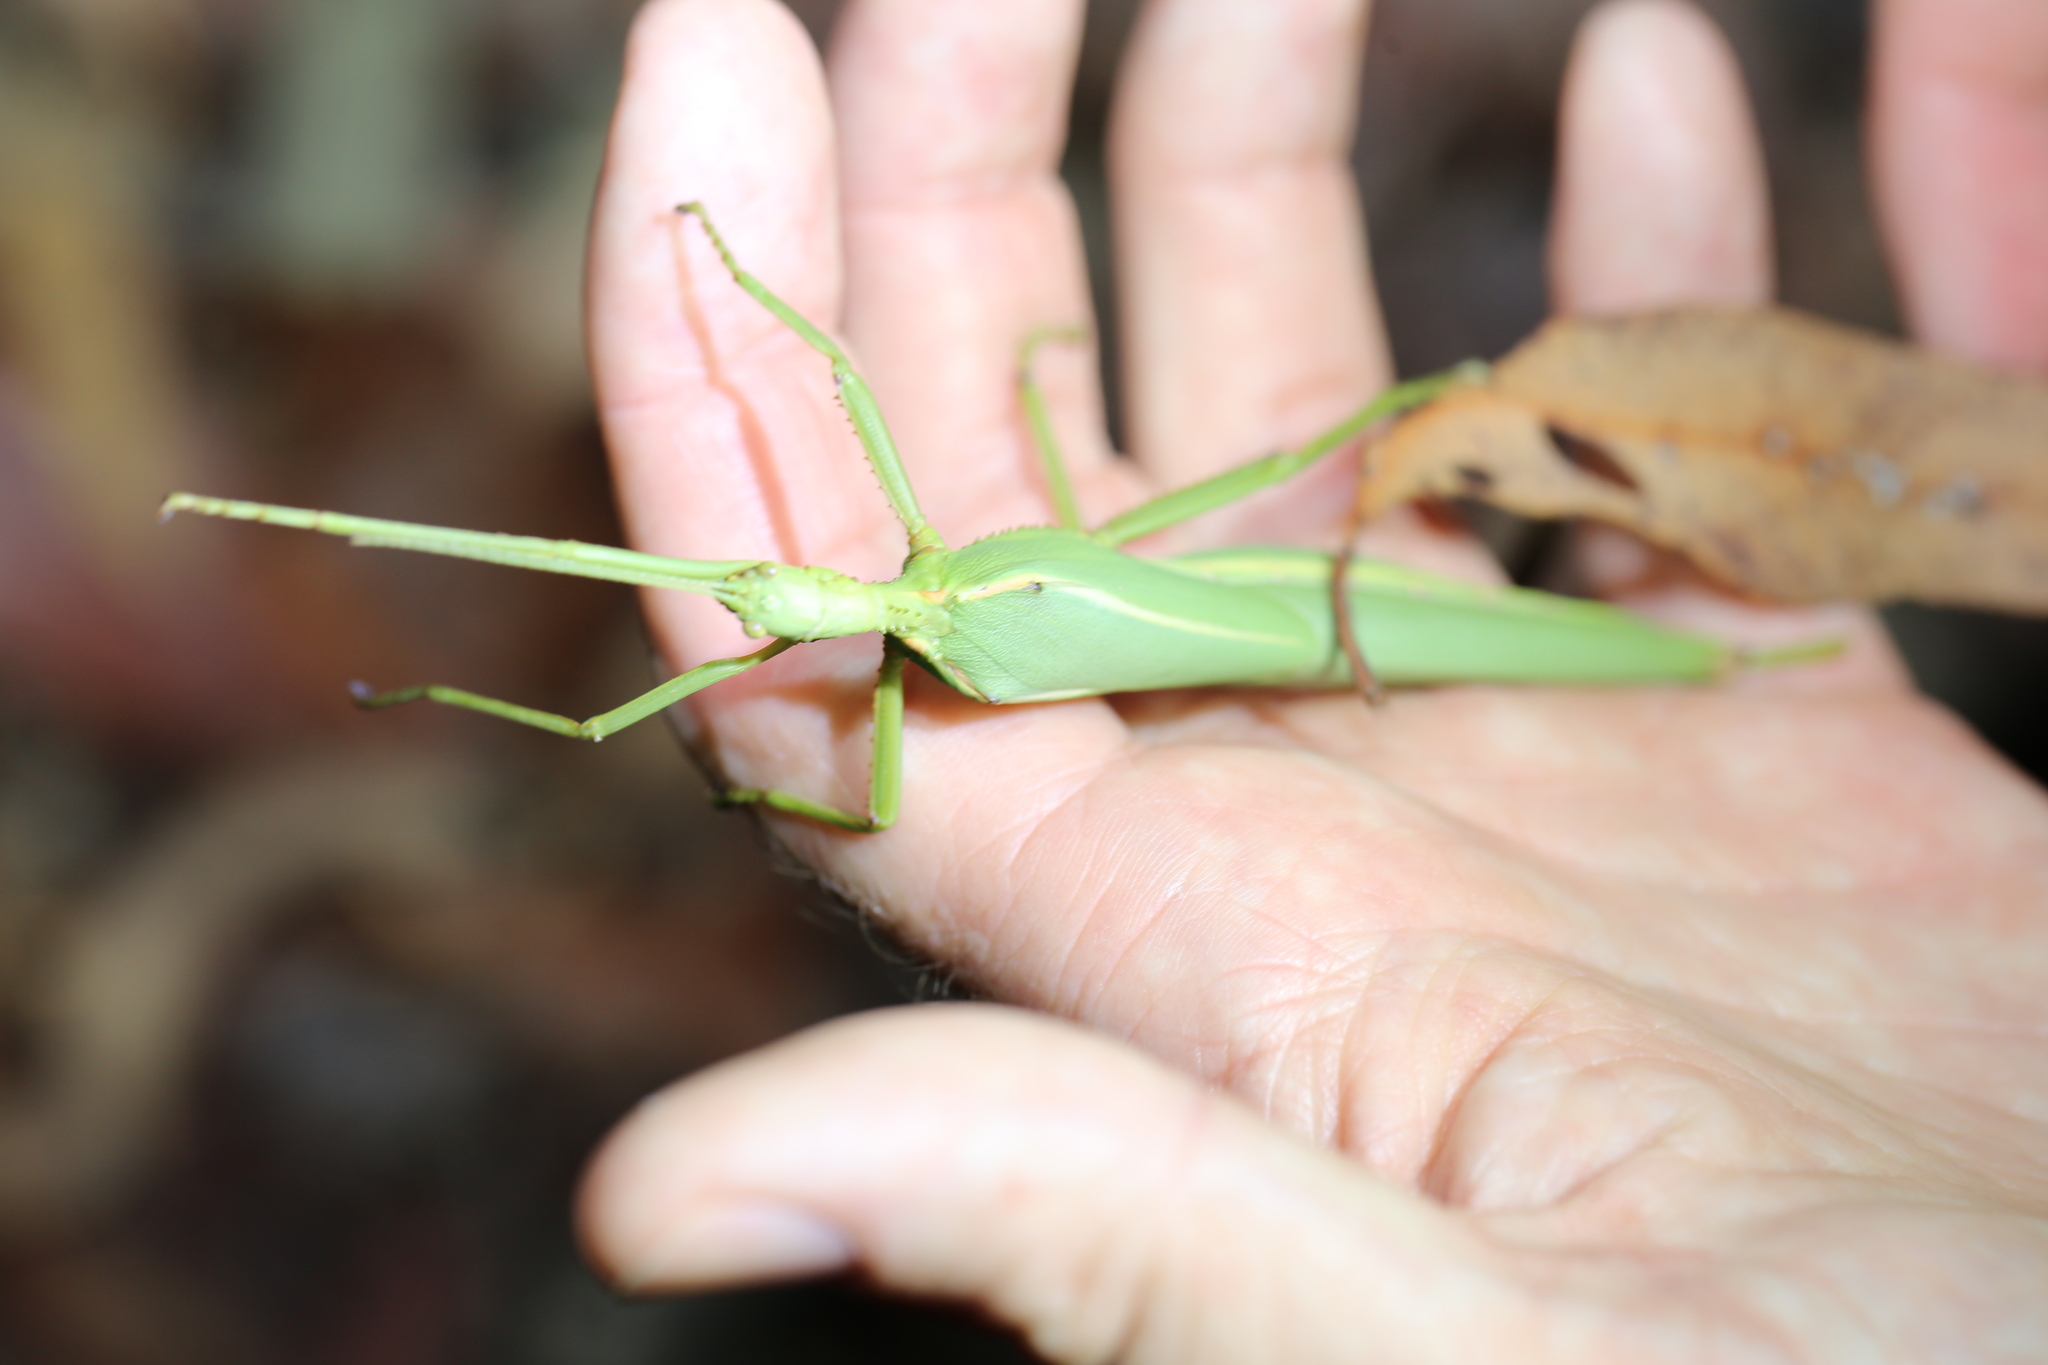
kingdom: Animalia
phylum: Arthropoda
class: Insecta
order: Phasmida
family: Phasmatidae
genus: Podacanthus
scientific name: Podacanthus viridiroseus
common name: Red-winged stick-insect
